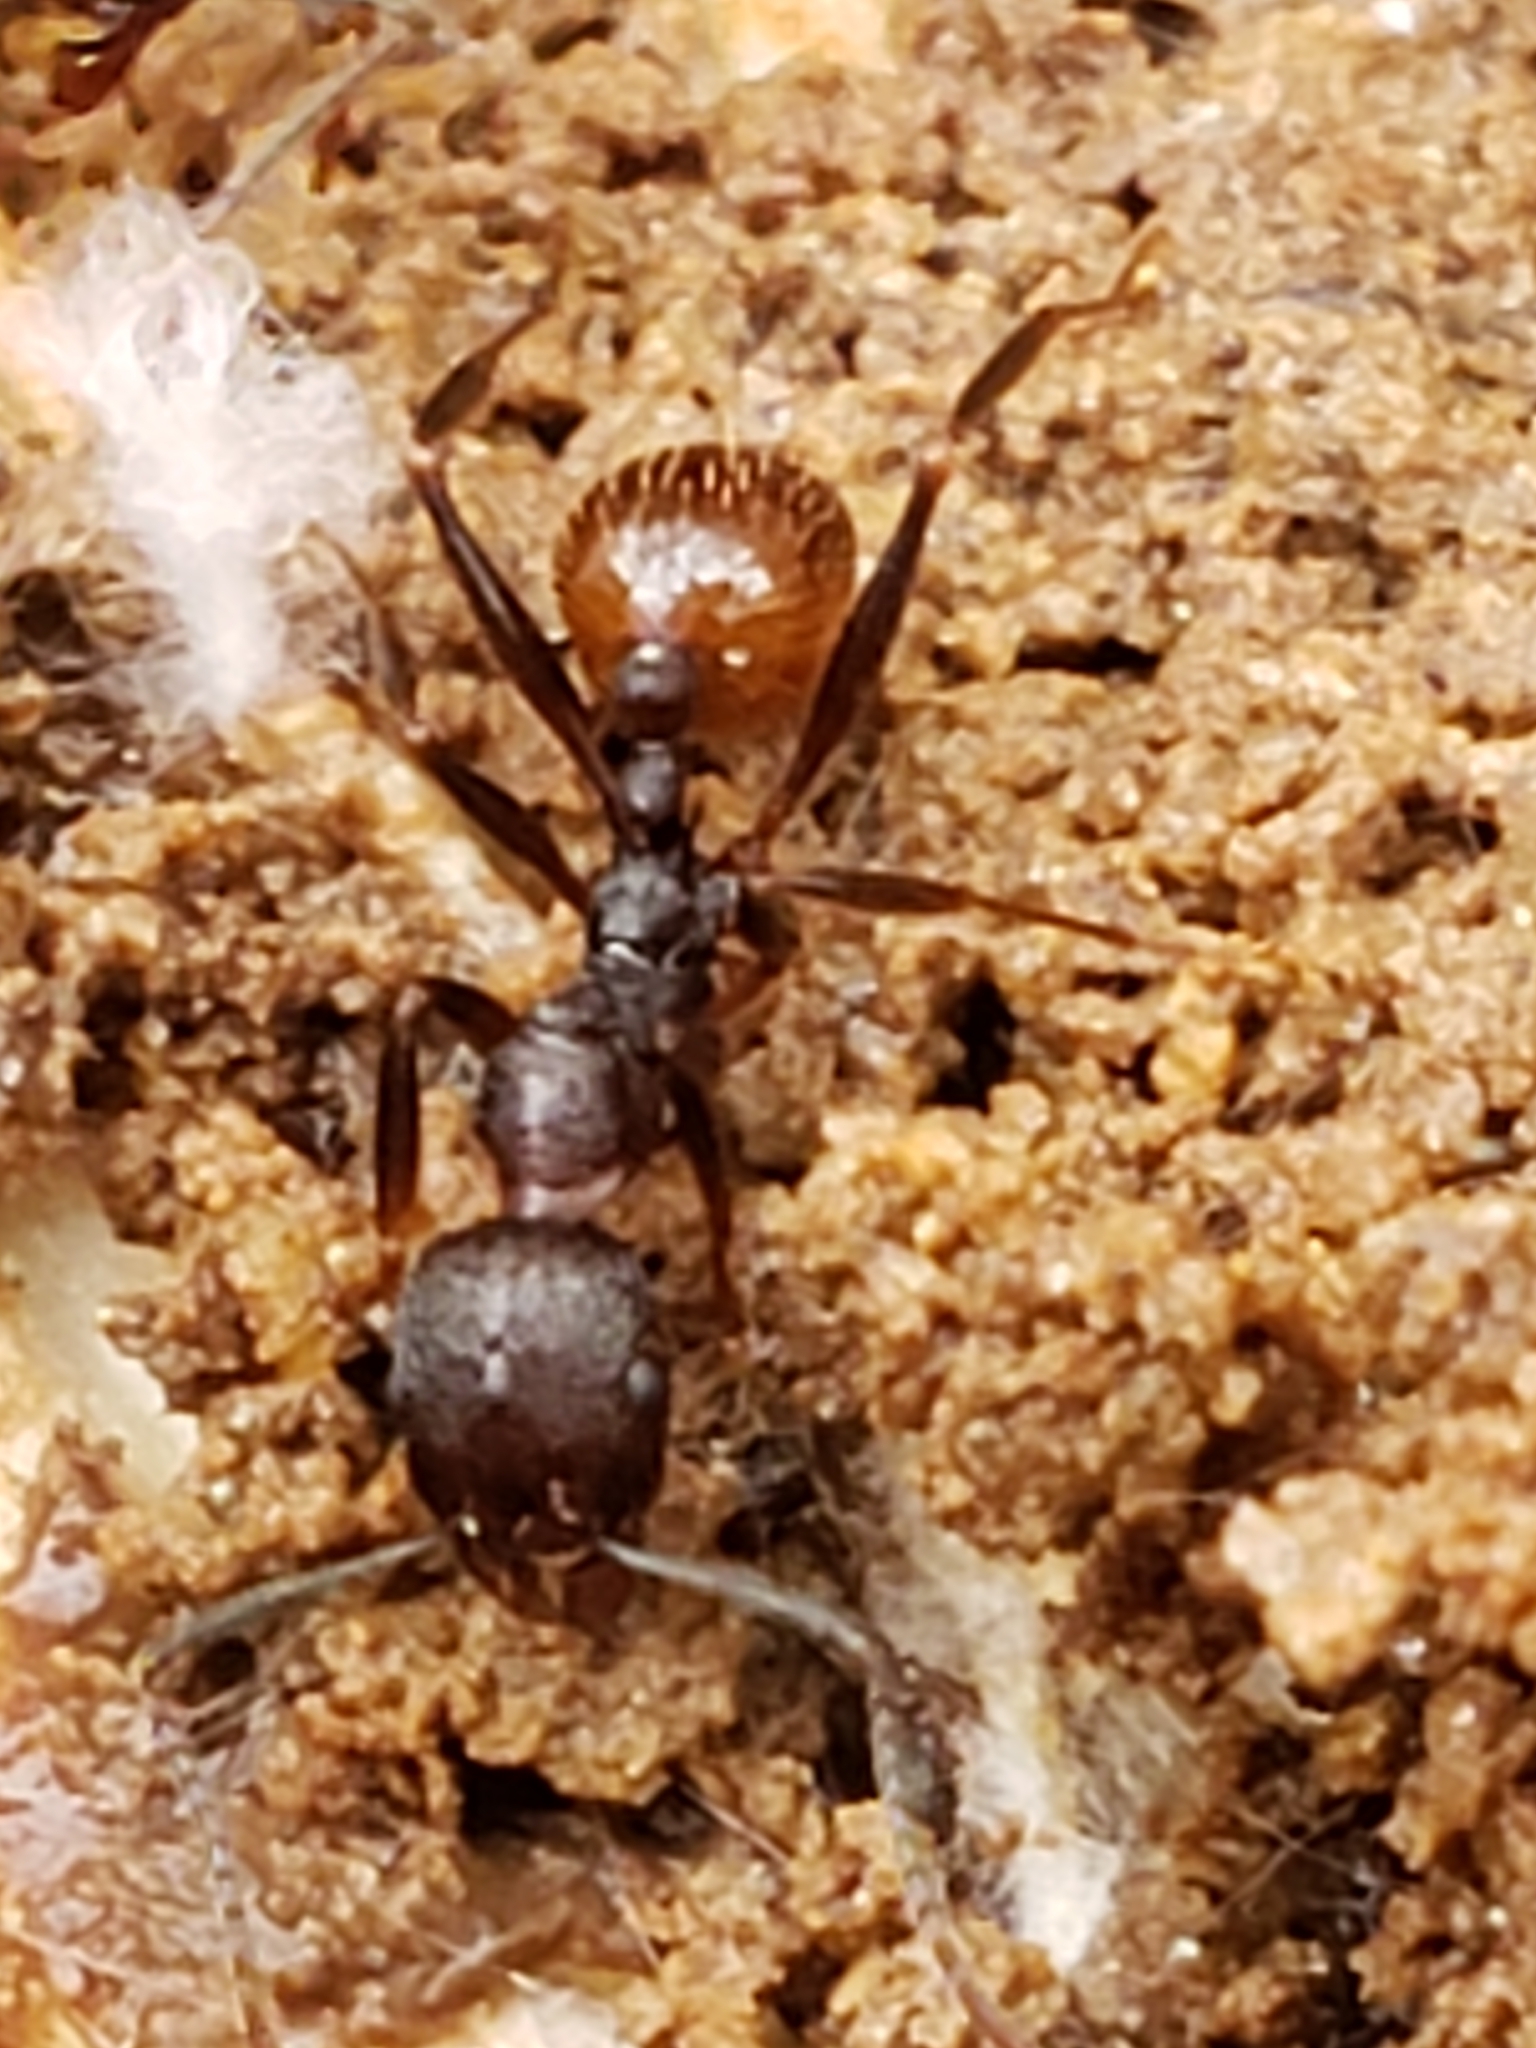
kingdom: Animalia
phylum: Arthropoda
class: Insecta
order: Hymenoptera
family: Formicidae
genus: Aphaenogaster
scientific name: Aphaenogaster fulva
